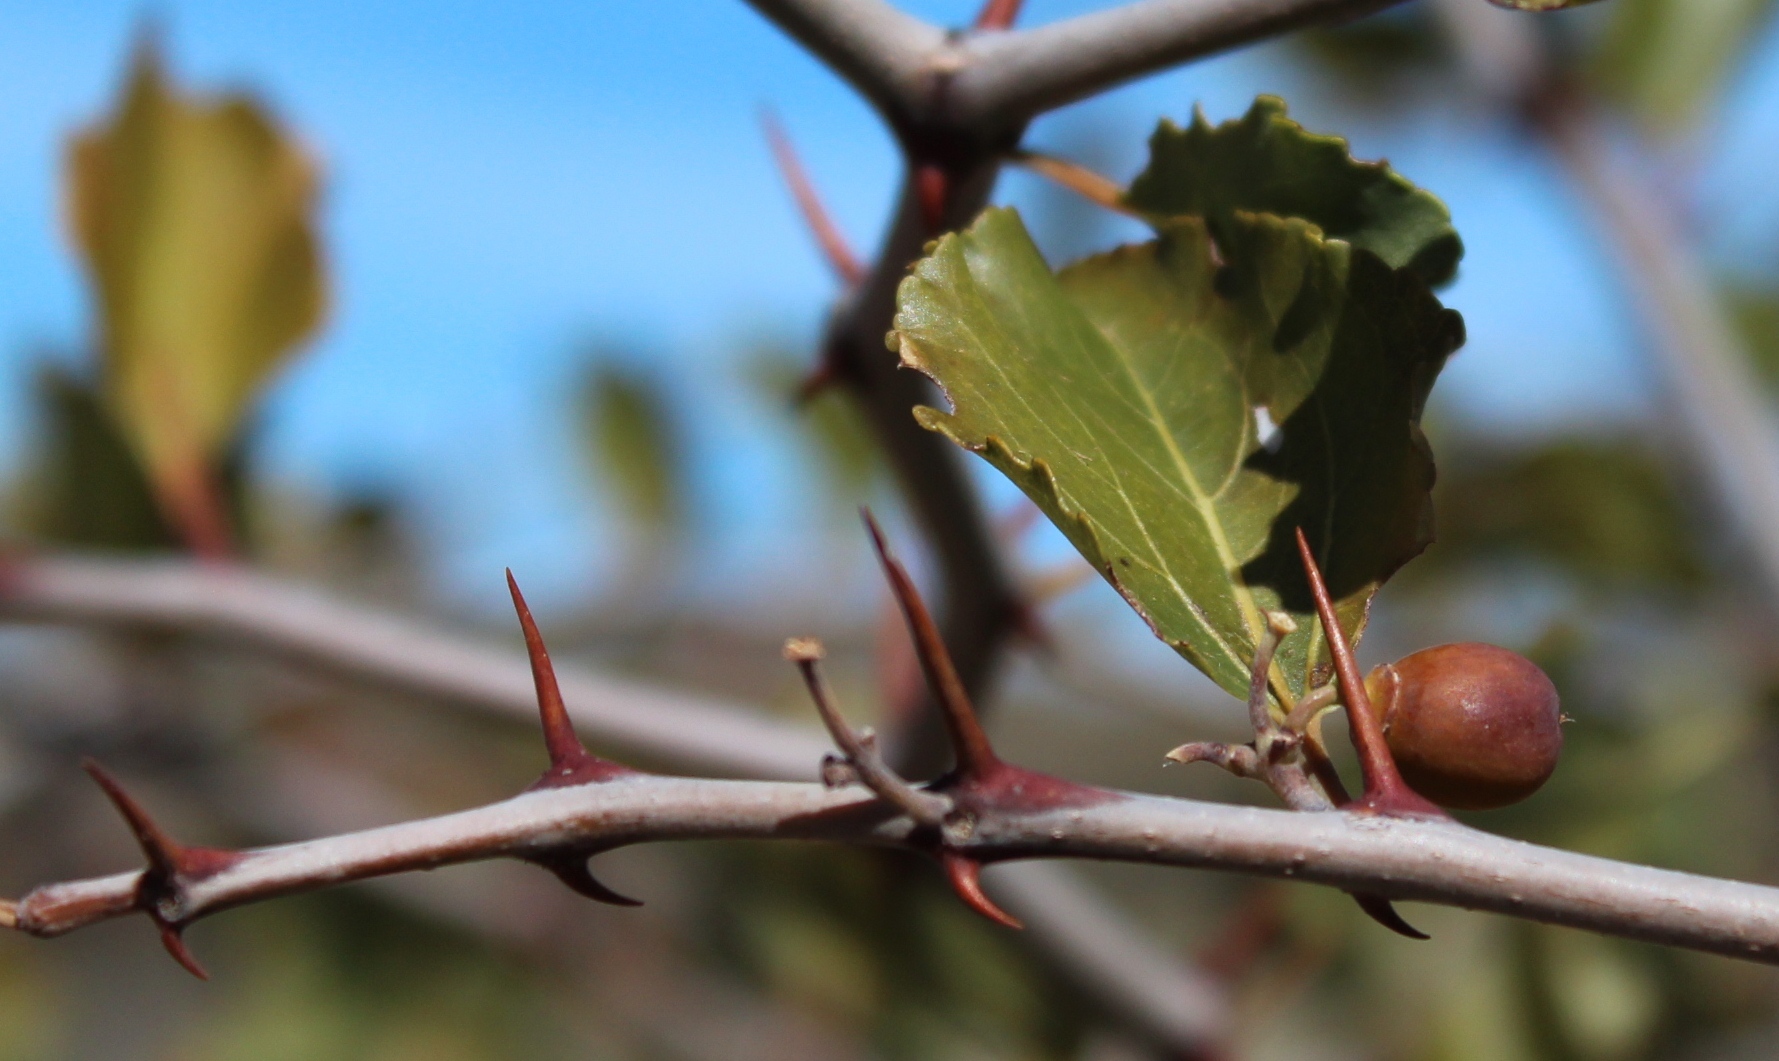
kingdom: Plantae
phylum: Tracheophyta
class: Magnoliopsida
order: Rosales
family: Rhamnaceae
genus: Ziziphus
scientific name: Ziziphus mucronata
